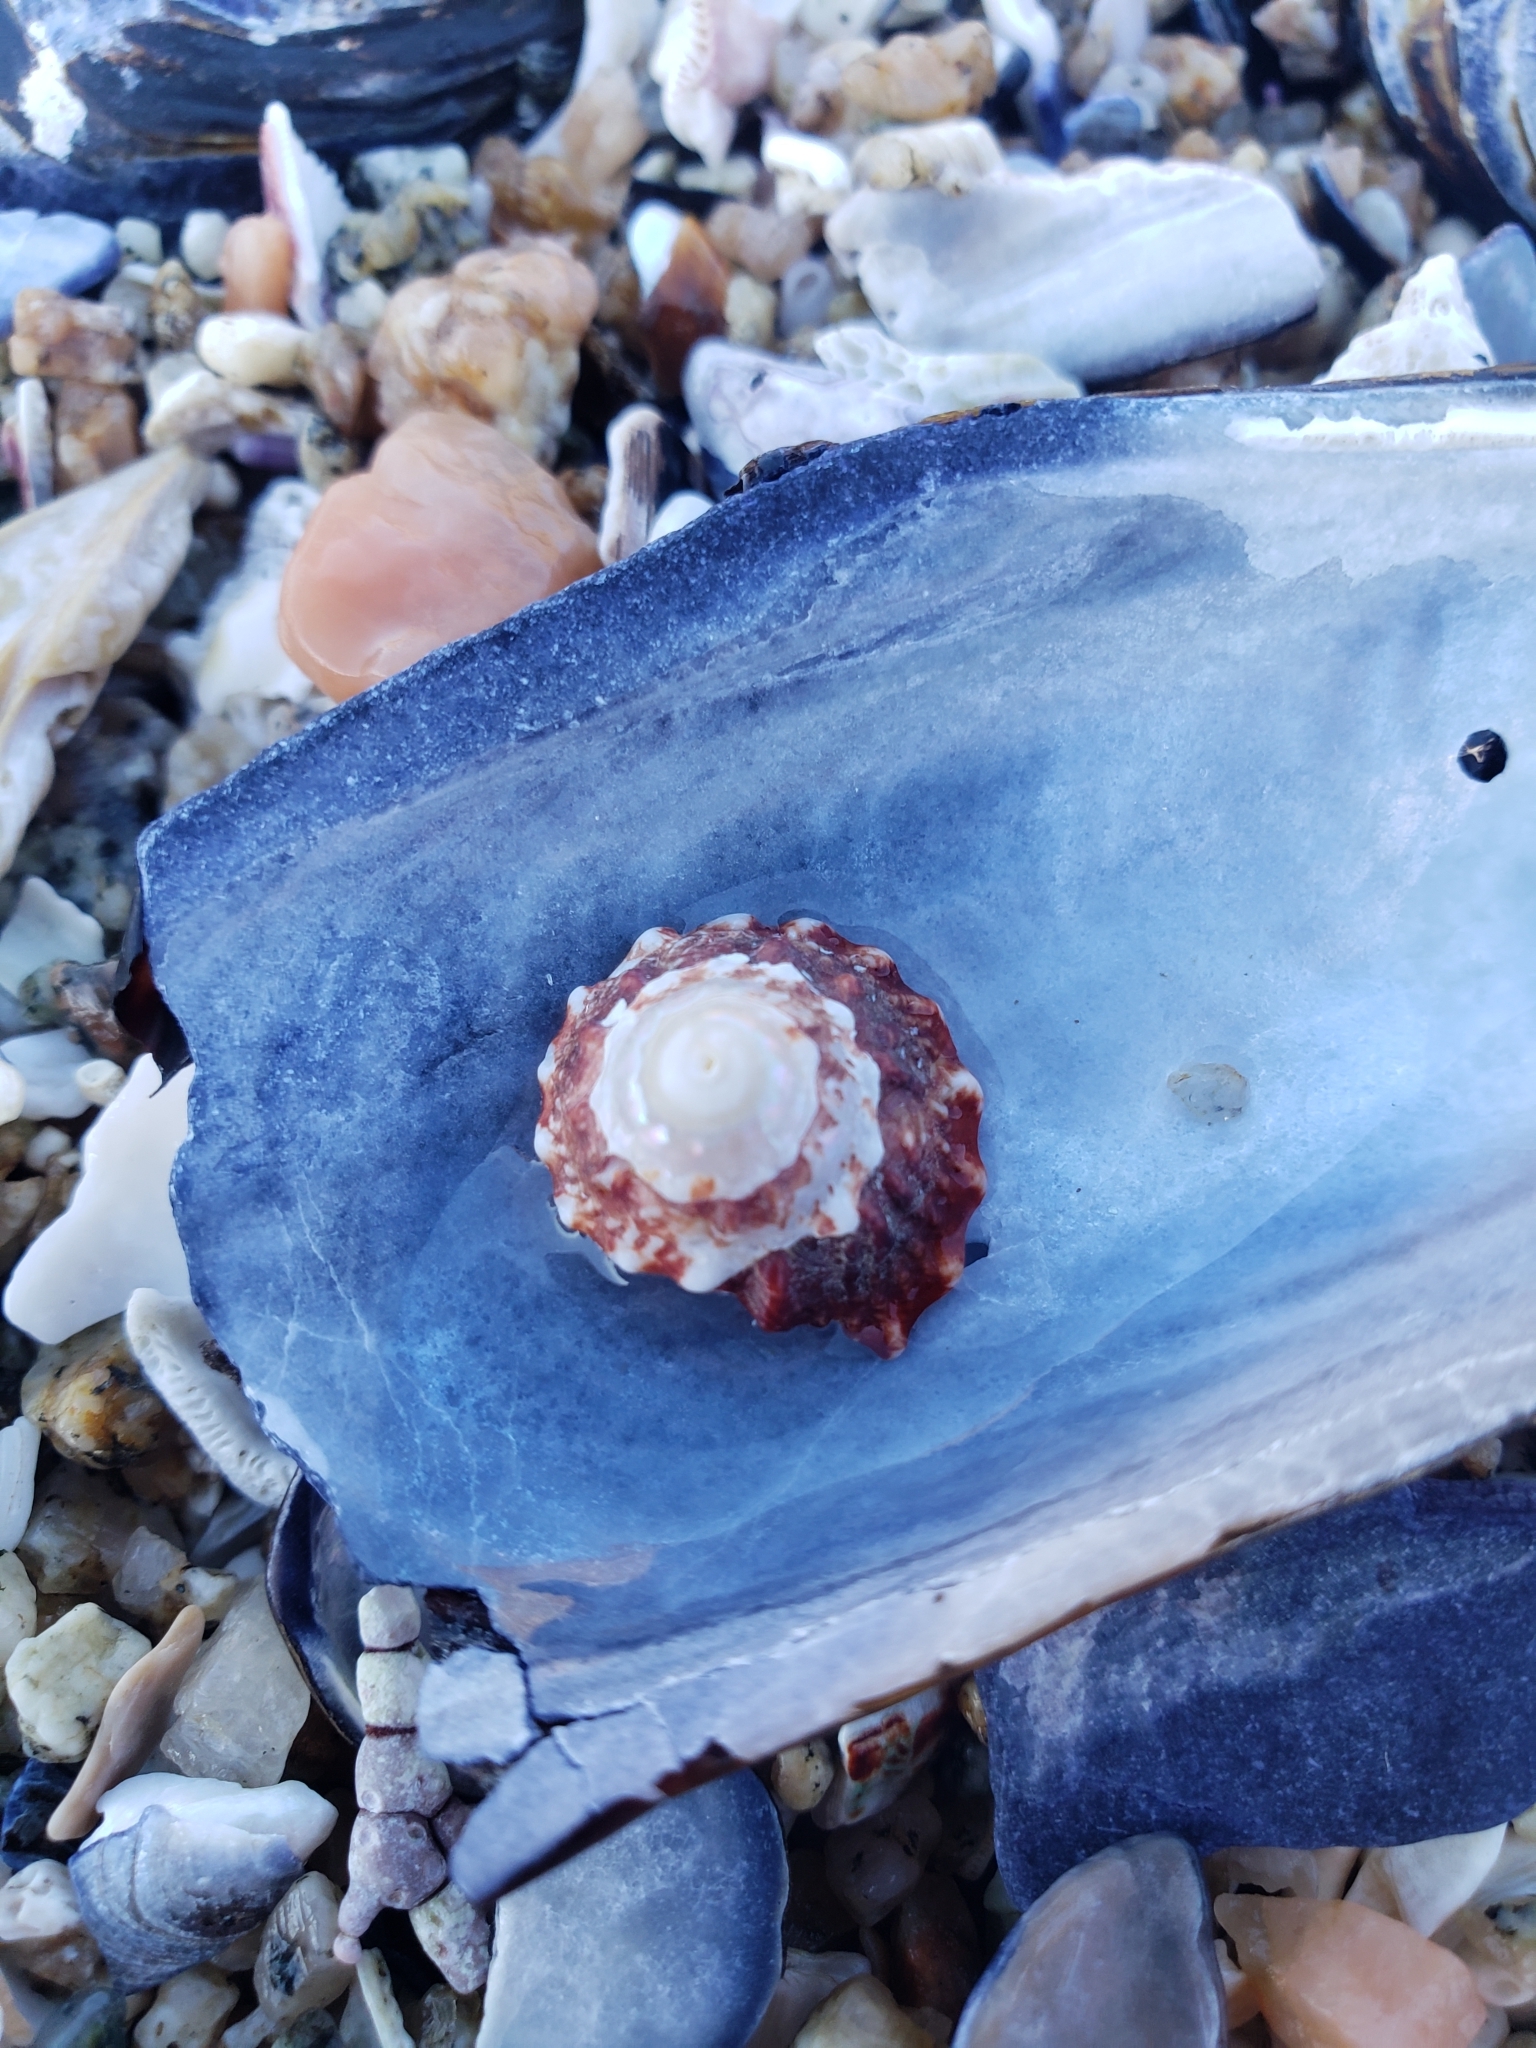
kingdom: Animalia
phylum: Mollusca
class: Gastropoda
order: Trochida
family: Turbinidae
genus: Pomaulax
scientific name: Pomaulax gibberosus
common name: Red turban
